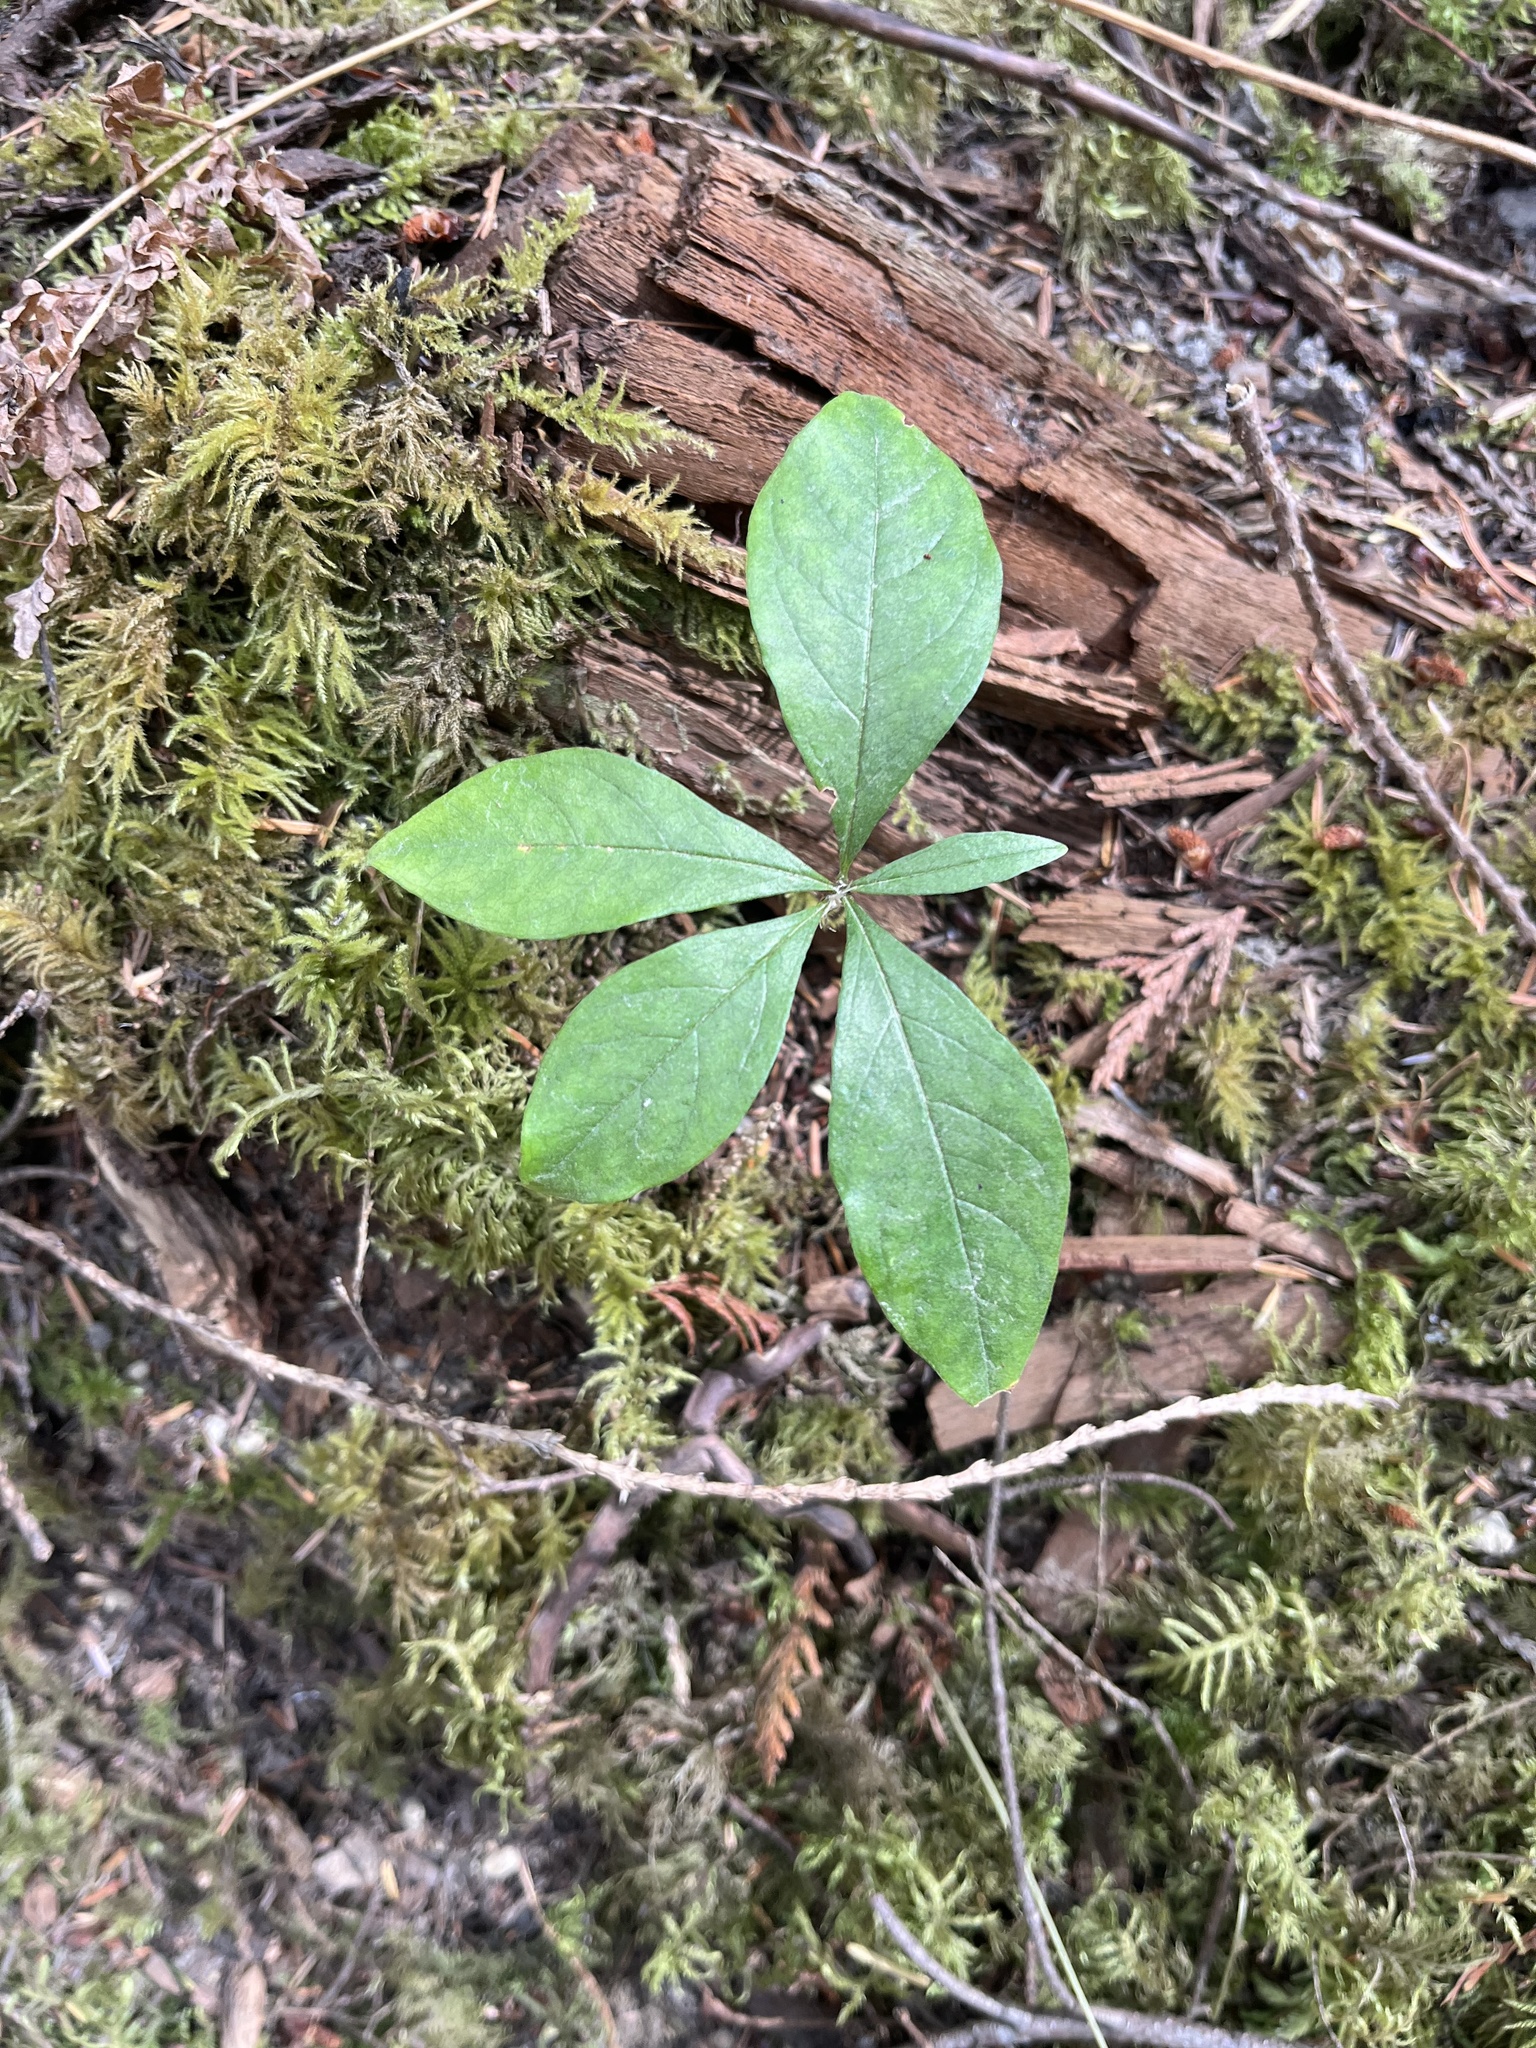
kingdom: Plantae
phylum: Tracheophyta
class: Magnoliopsida
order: Ericales
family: Primulaceae
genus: Lysimachia
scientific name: Lysimachia latifolia
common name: Pacific starflower
